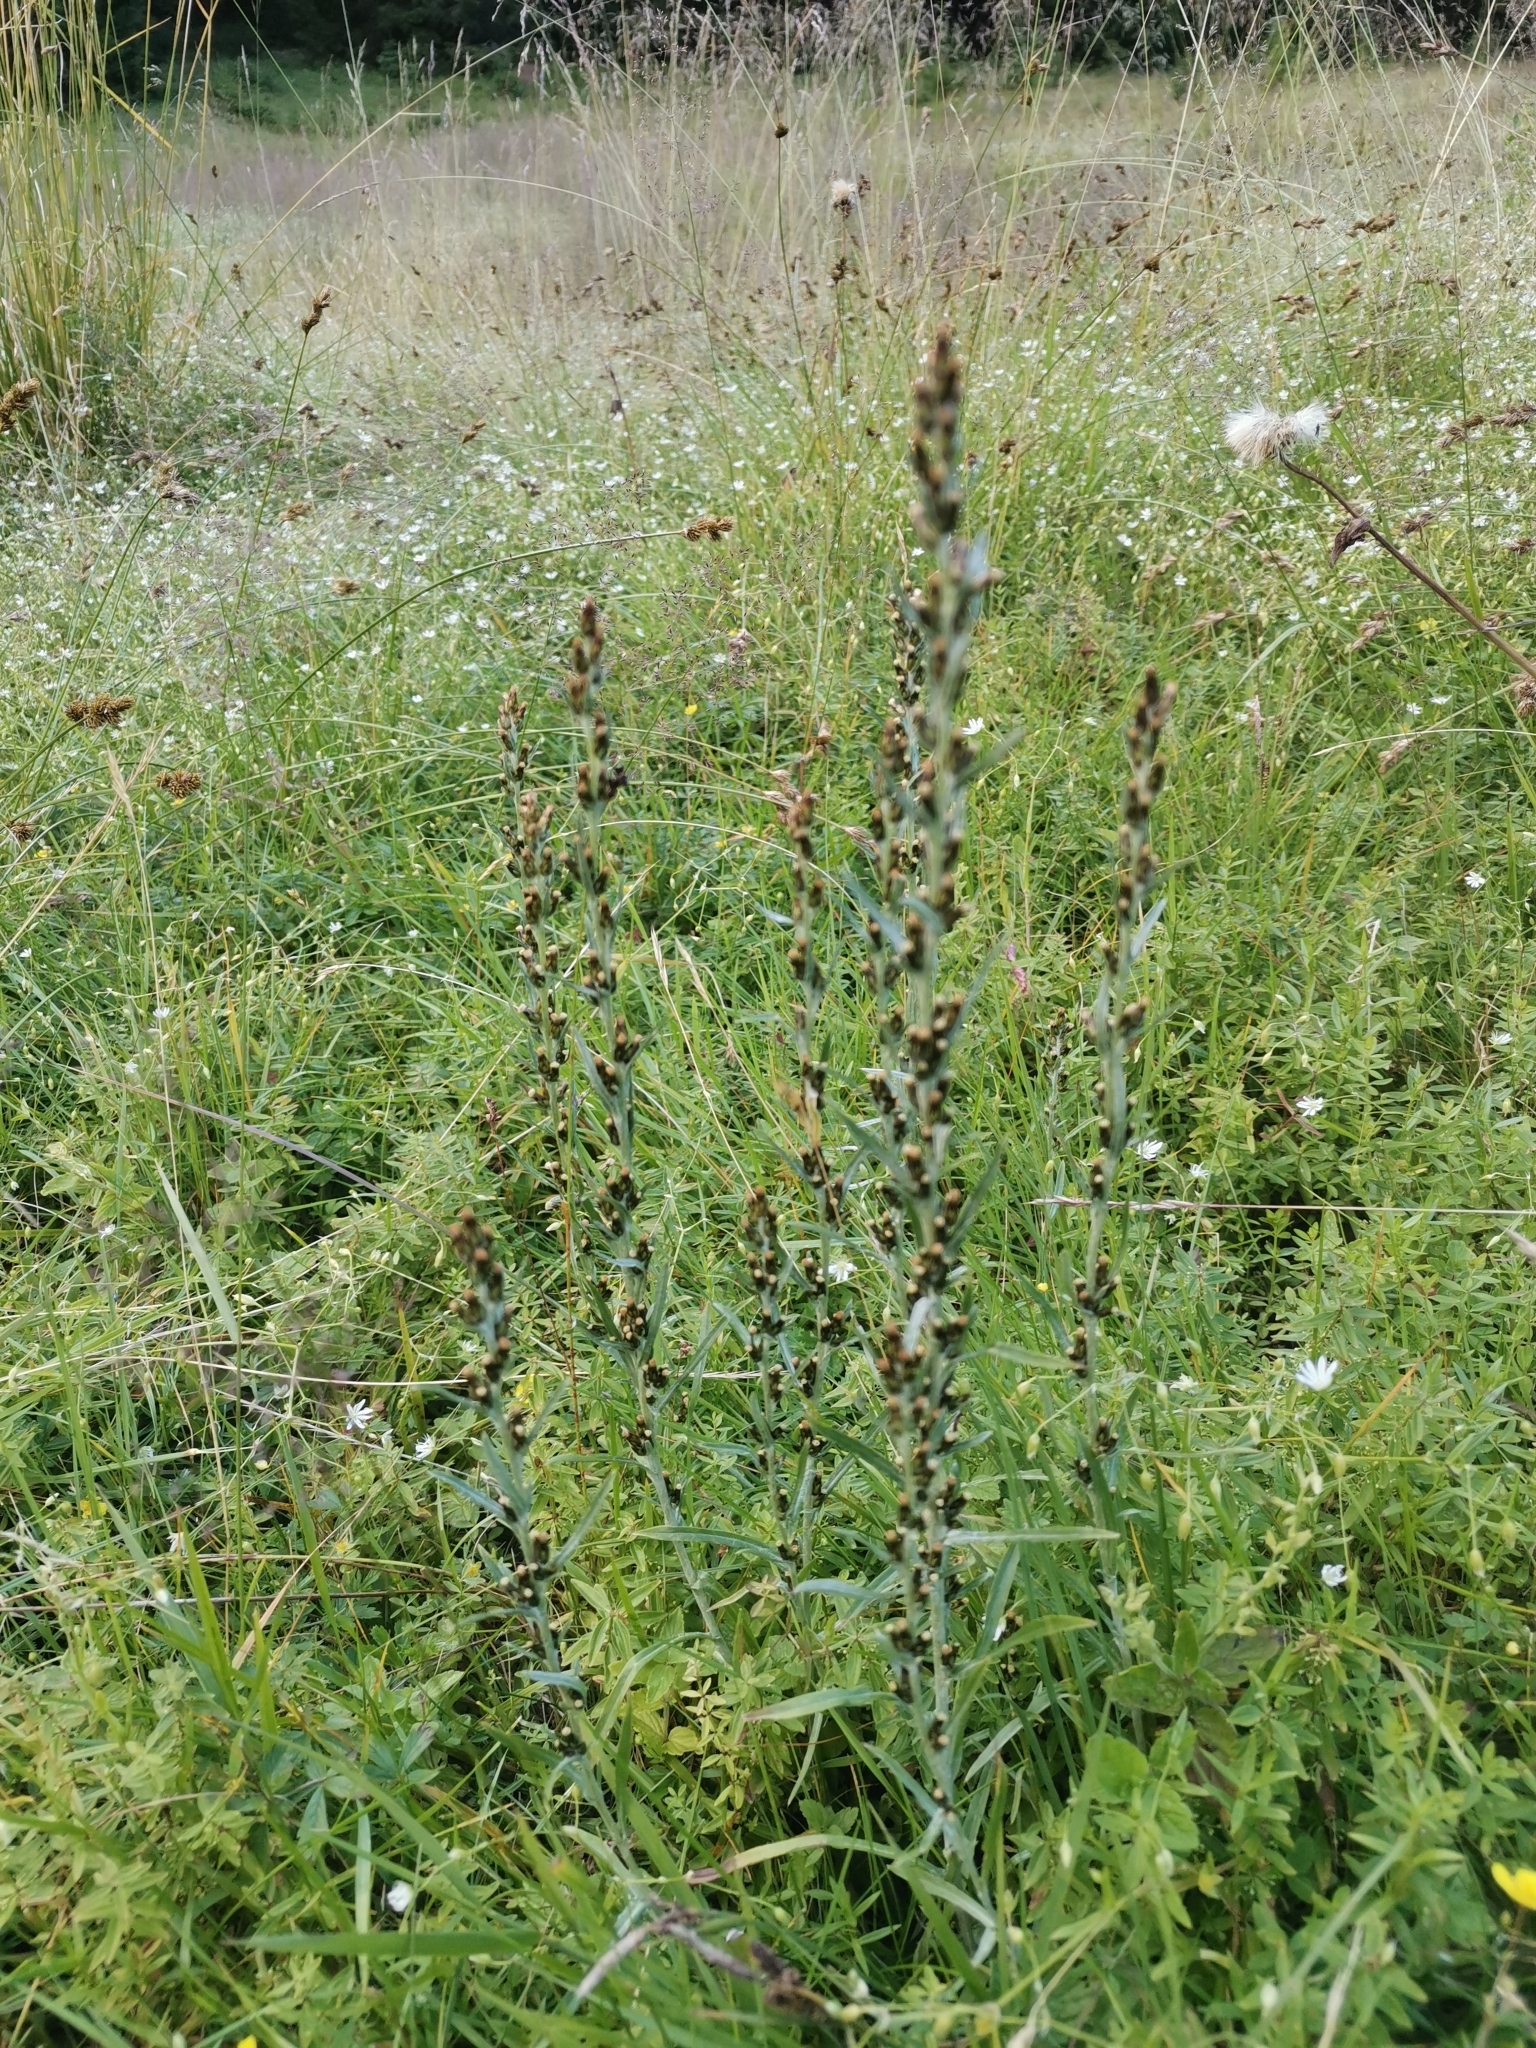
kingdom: Plantae
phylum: Tracheophyta
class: Magnoliopsida
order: Asterales
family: Asteraceae
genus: Omalotheca
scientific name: Omalotheca sylvatica
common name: Heath cudweed
